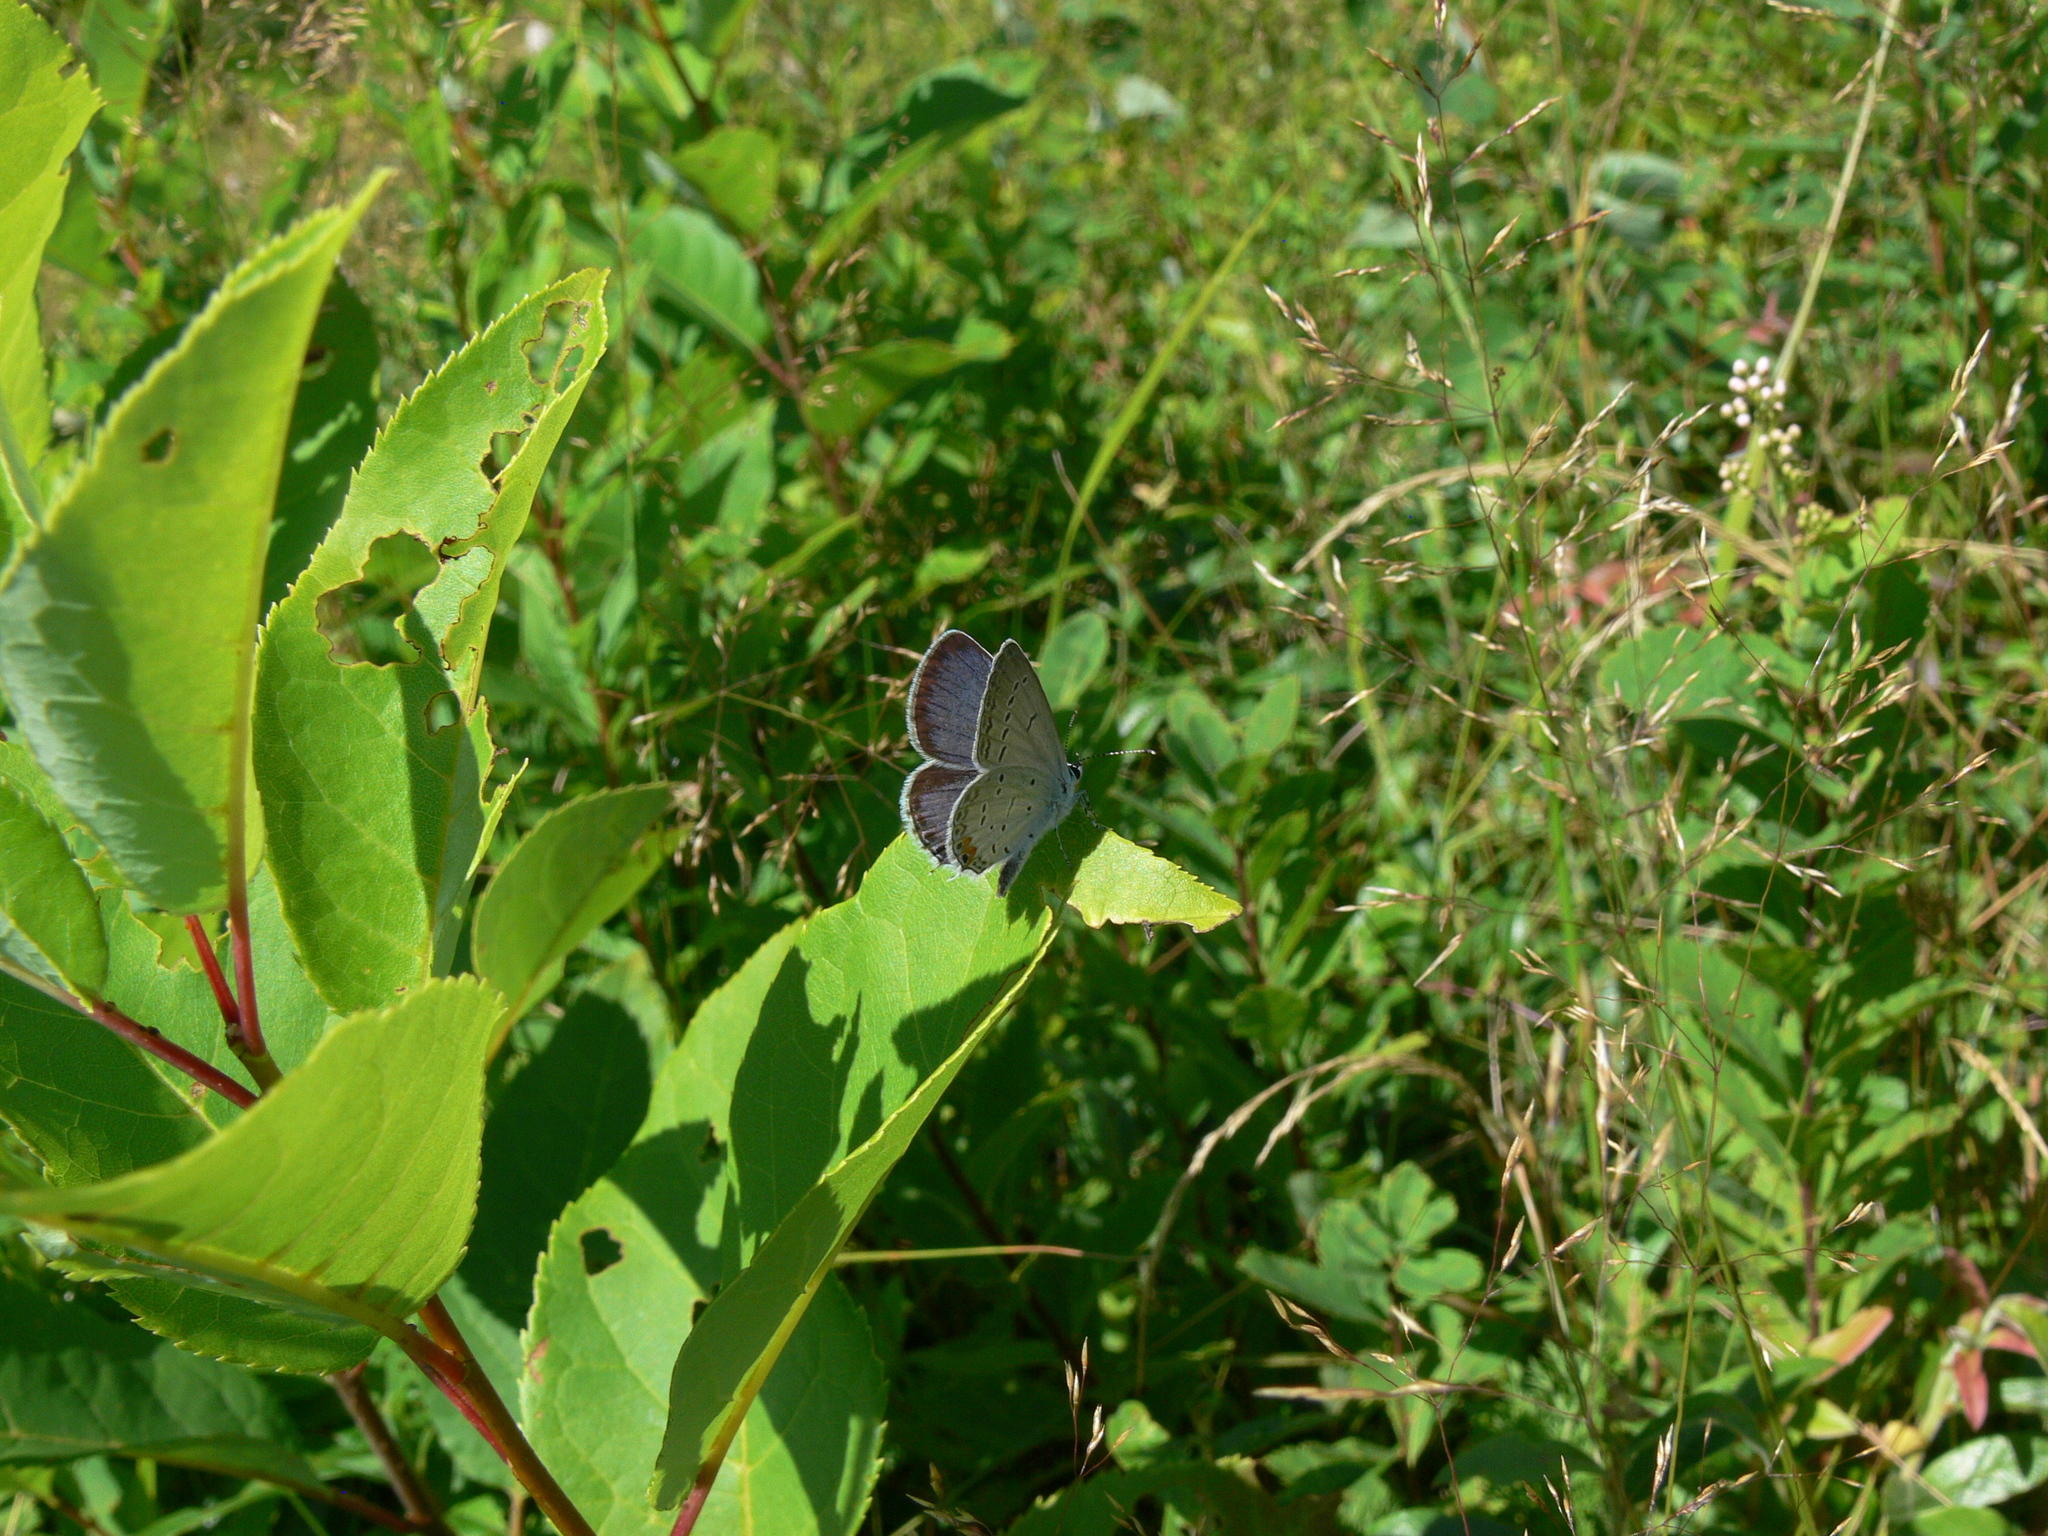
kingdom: Animalia
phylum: Arthropoda
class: Insecta
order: Lepidoptera
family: Lycaenidae
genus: Elkalyce
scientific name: Elkalyce comyntas
